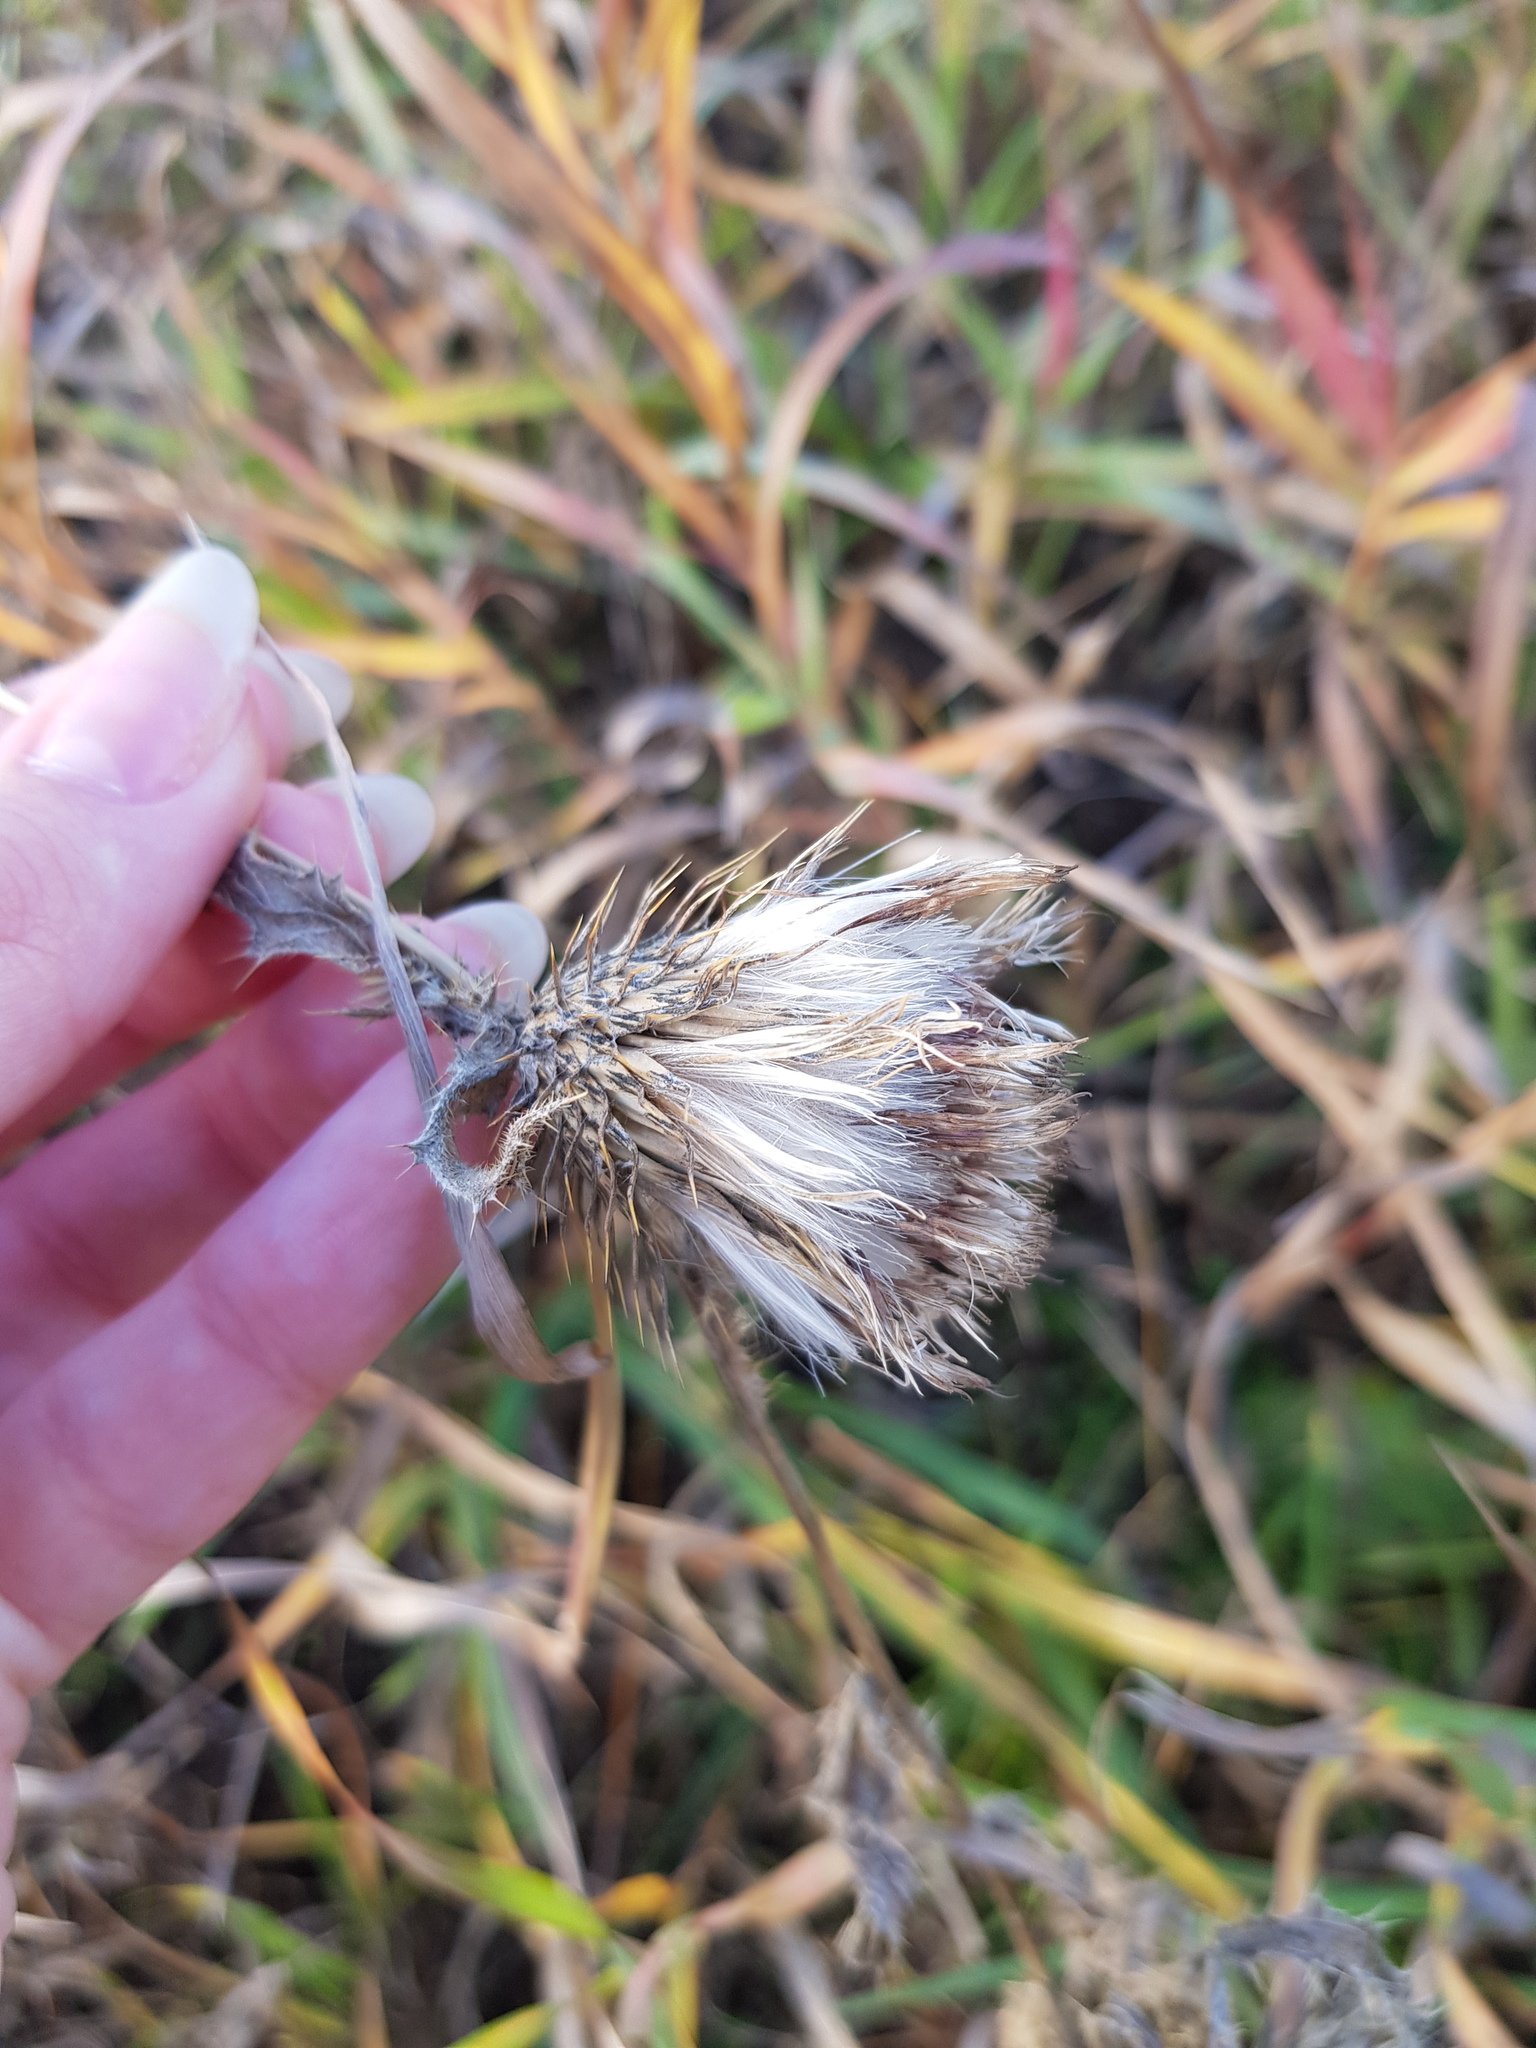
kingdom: Plantae
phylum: Tracheophyta
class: Magnoliopsida
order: Asterales
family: Asteraceae
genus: Cirsium
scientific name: Cirsium vulgare
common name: Bull thistle
